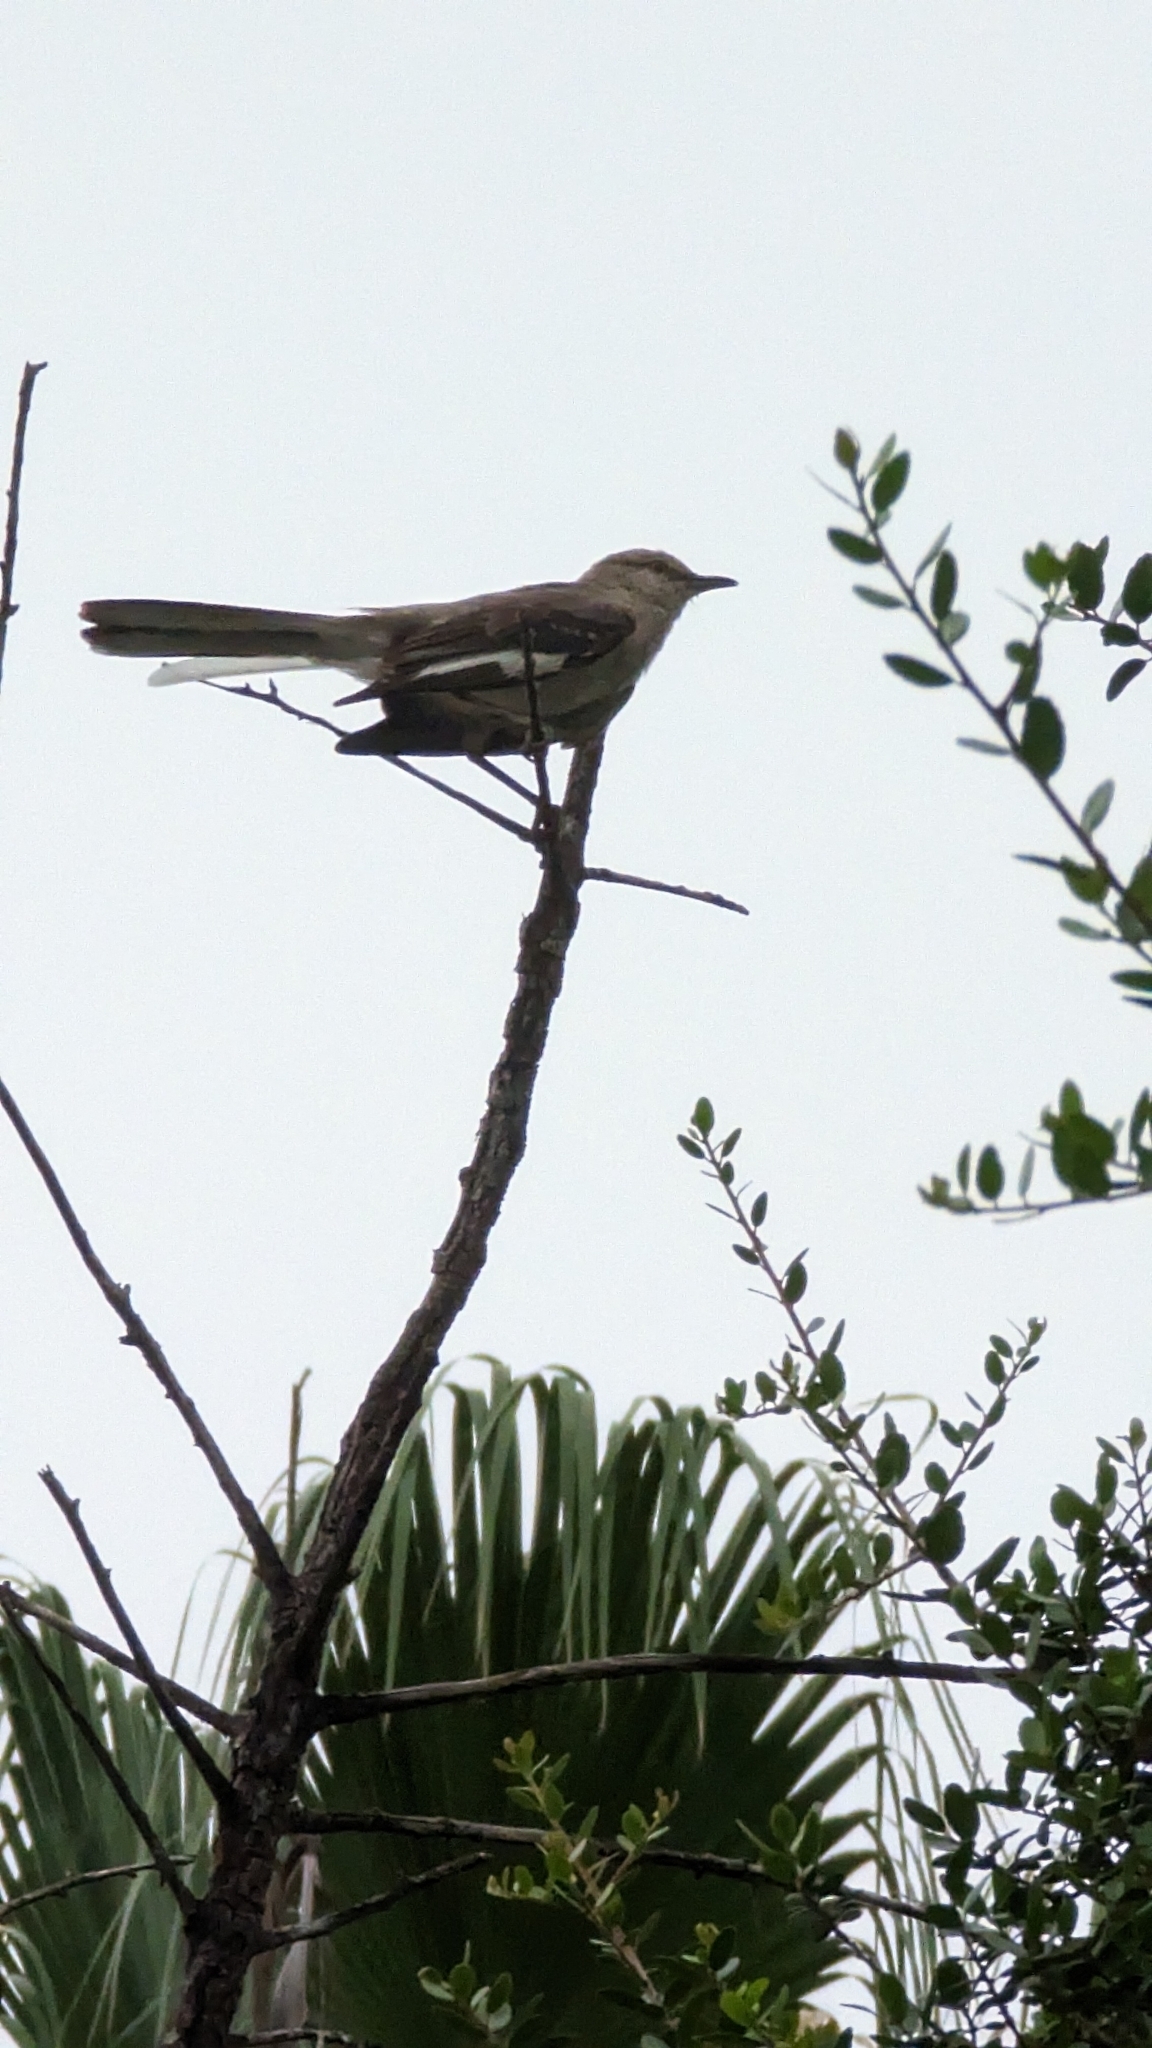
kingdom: Animalia
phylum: Chordata
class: Aves
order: Passeriformes
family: Mimidae
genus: Mimus
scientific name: Mimus polyglottos
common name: Northern mockingbird
